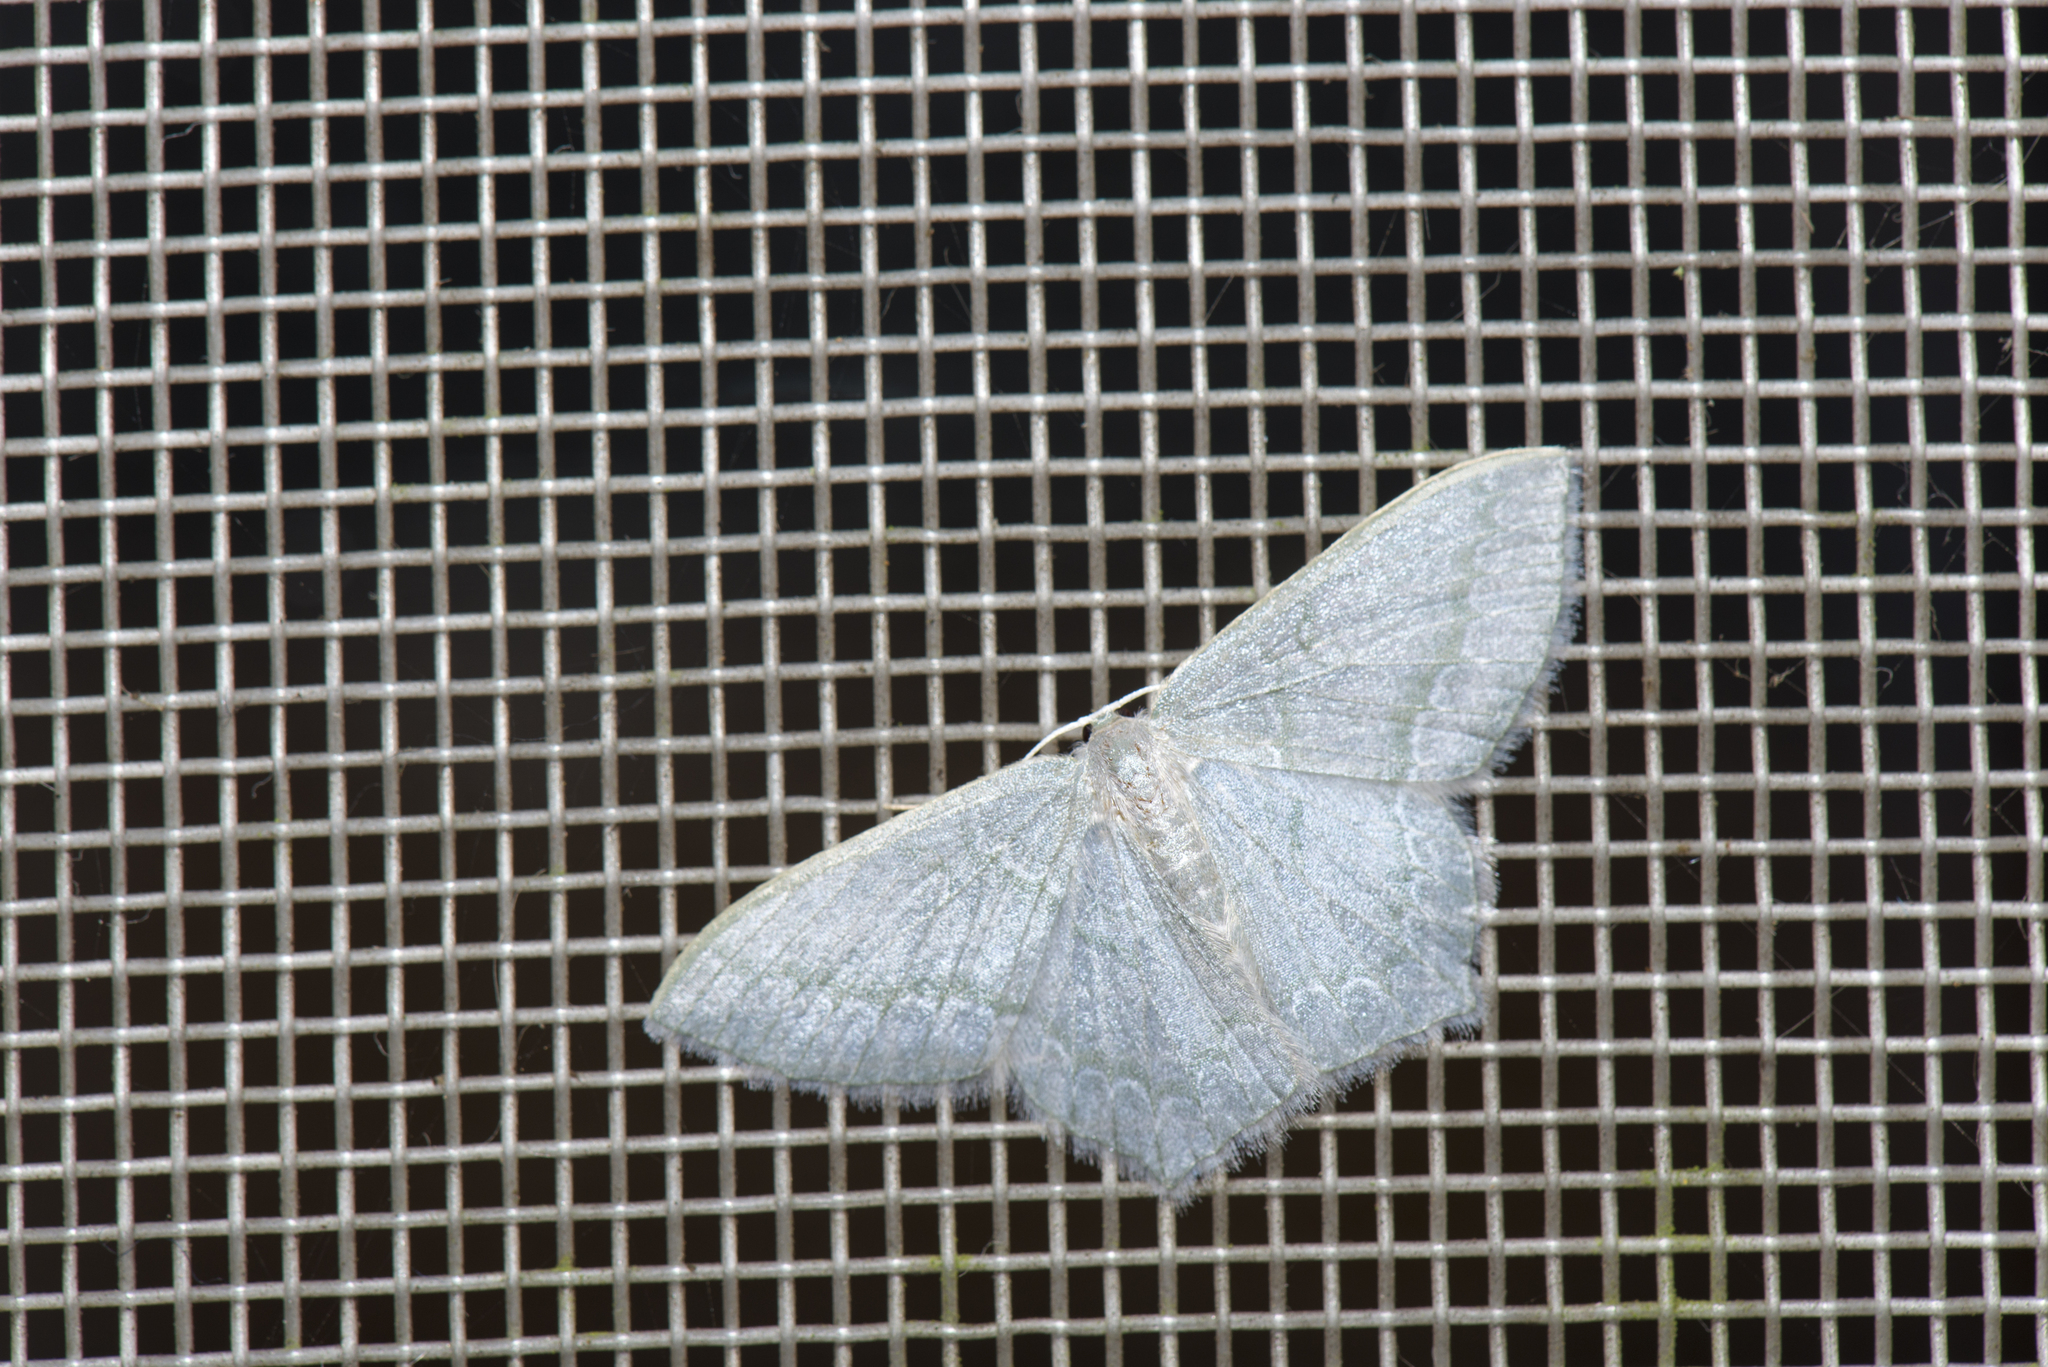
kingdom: Animalia
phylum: Arthropoda
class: Insecta
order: Lepidoptera
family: Geometridae
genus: Jodis
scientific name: Jodis rantaizanensis
